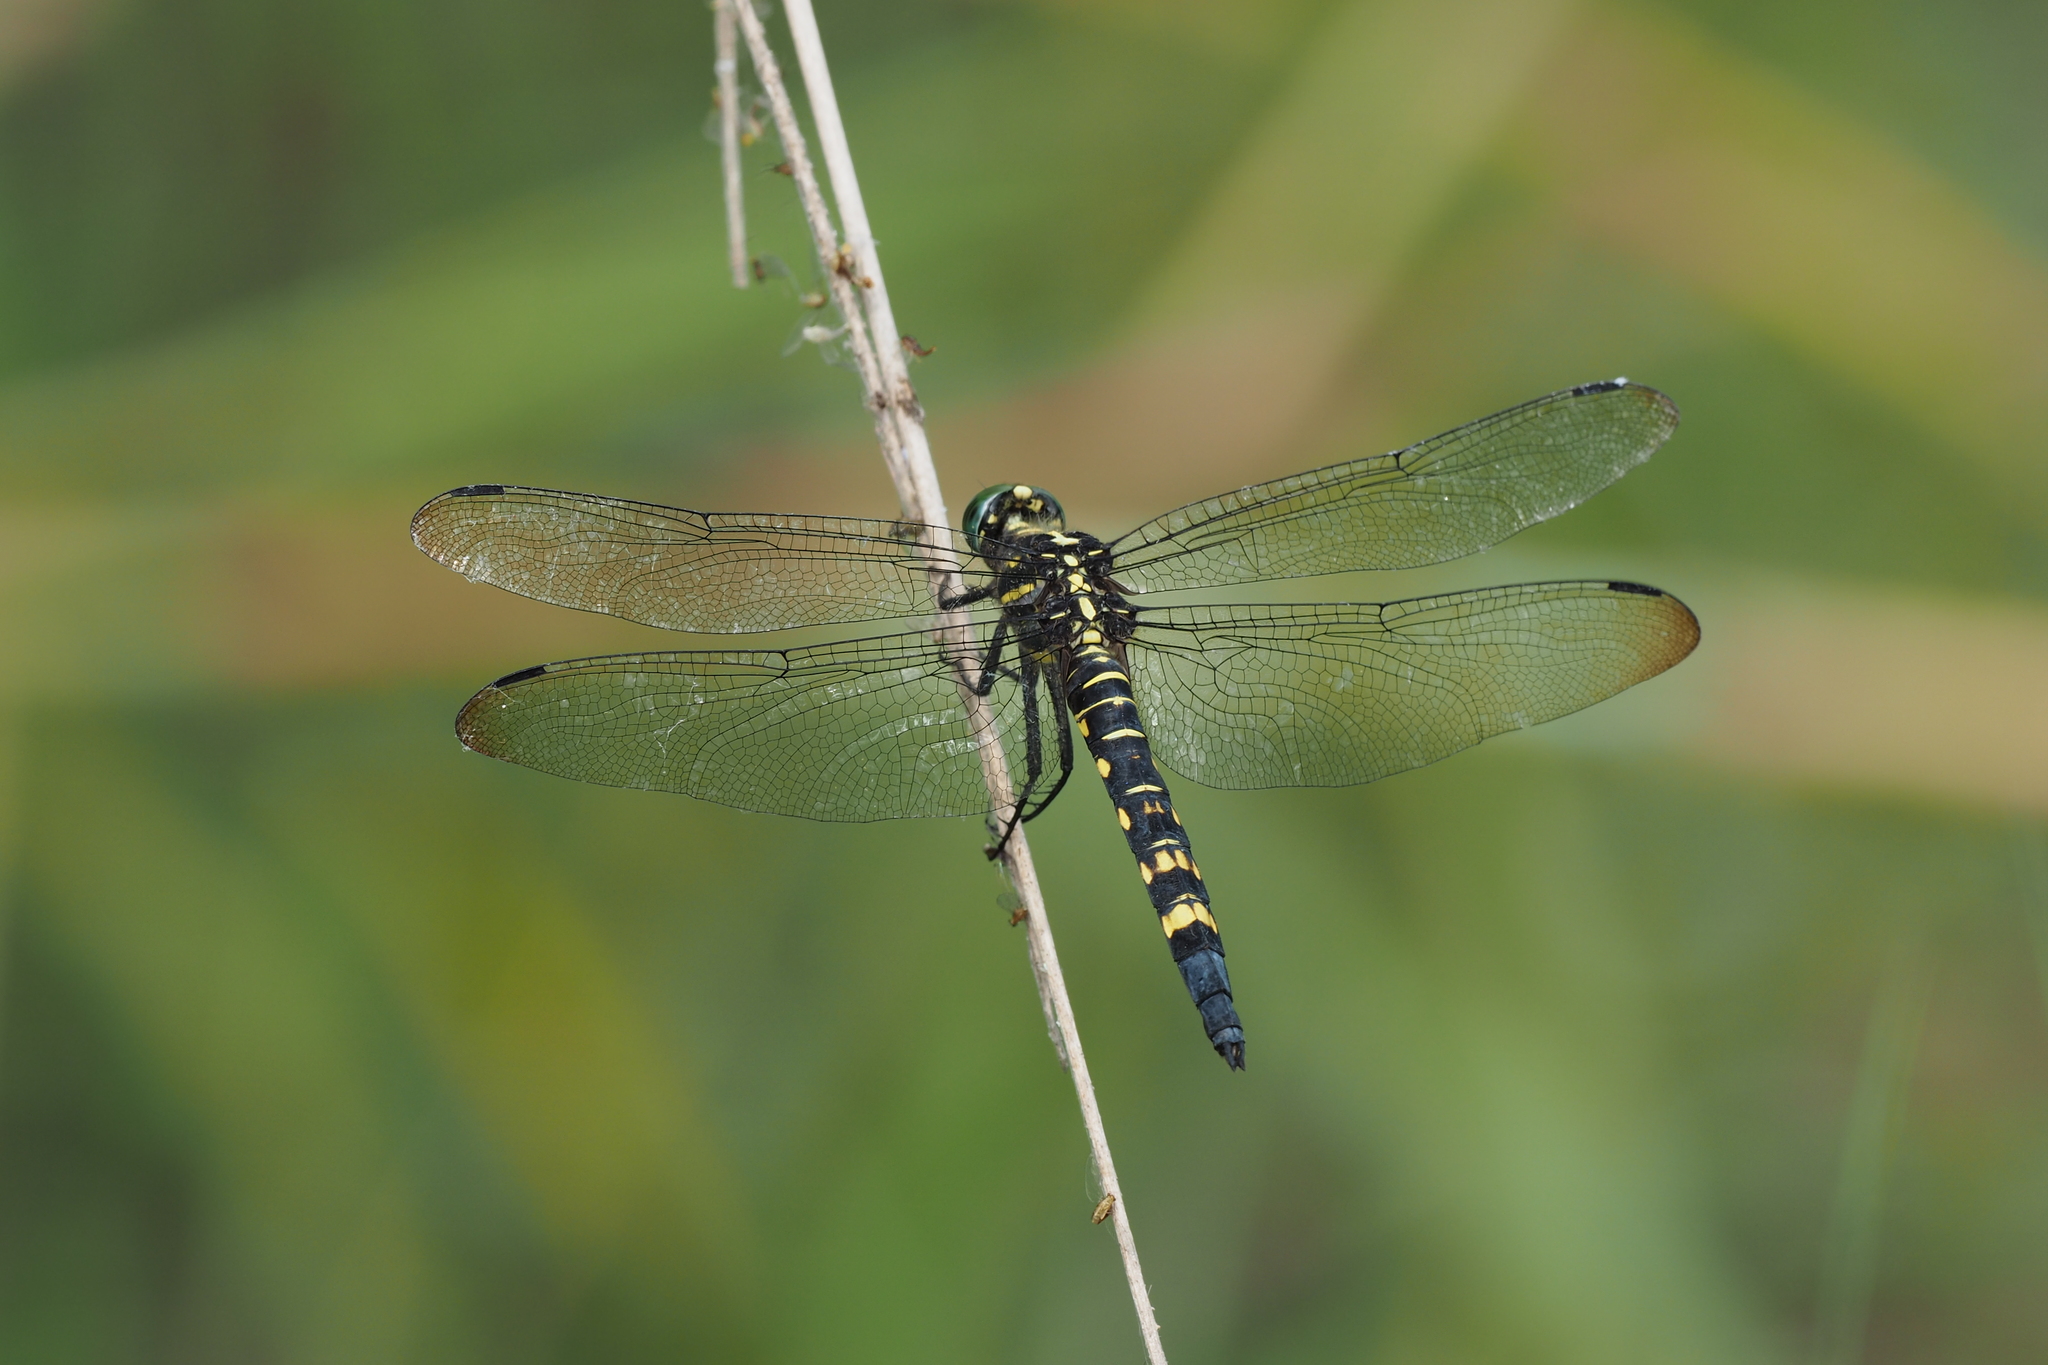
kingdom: Animalia
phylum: Arthropoda
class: Insecta
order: Odonata
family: Libellulidae
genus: Onychothemis
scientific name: Onychothemis tonkinensis
